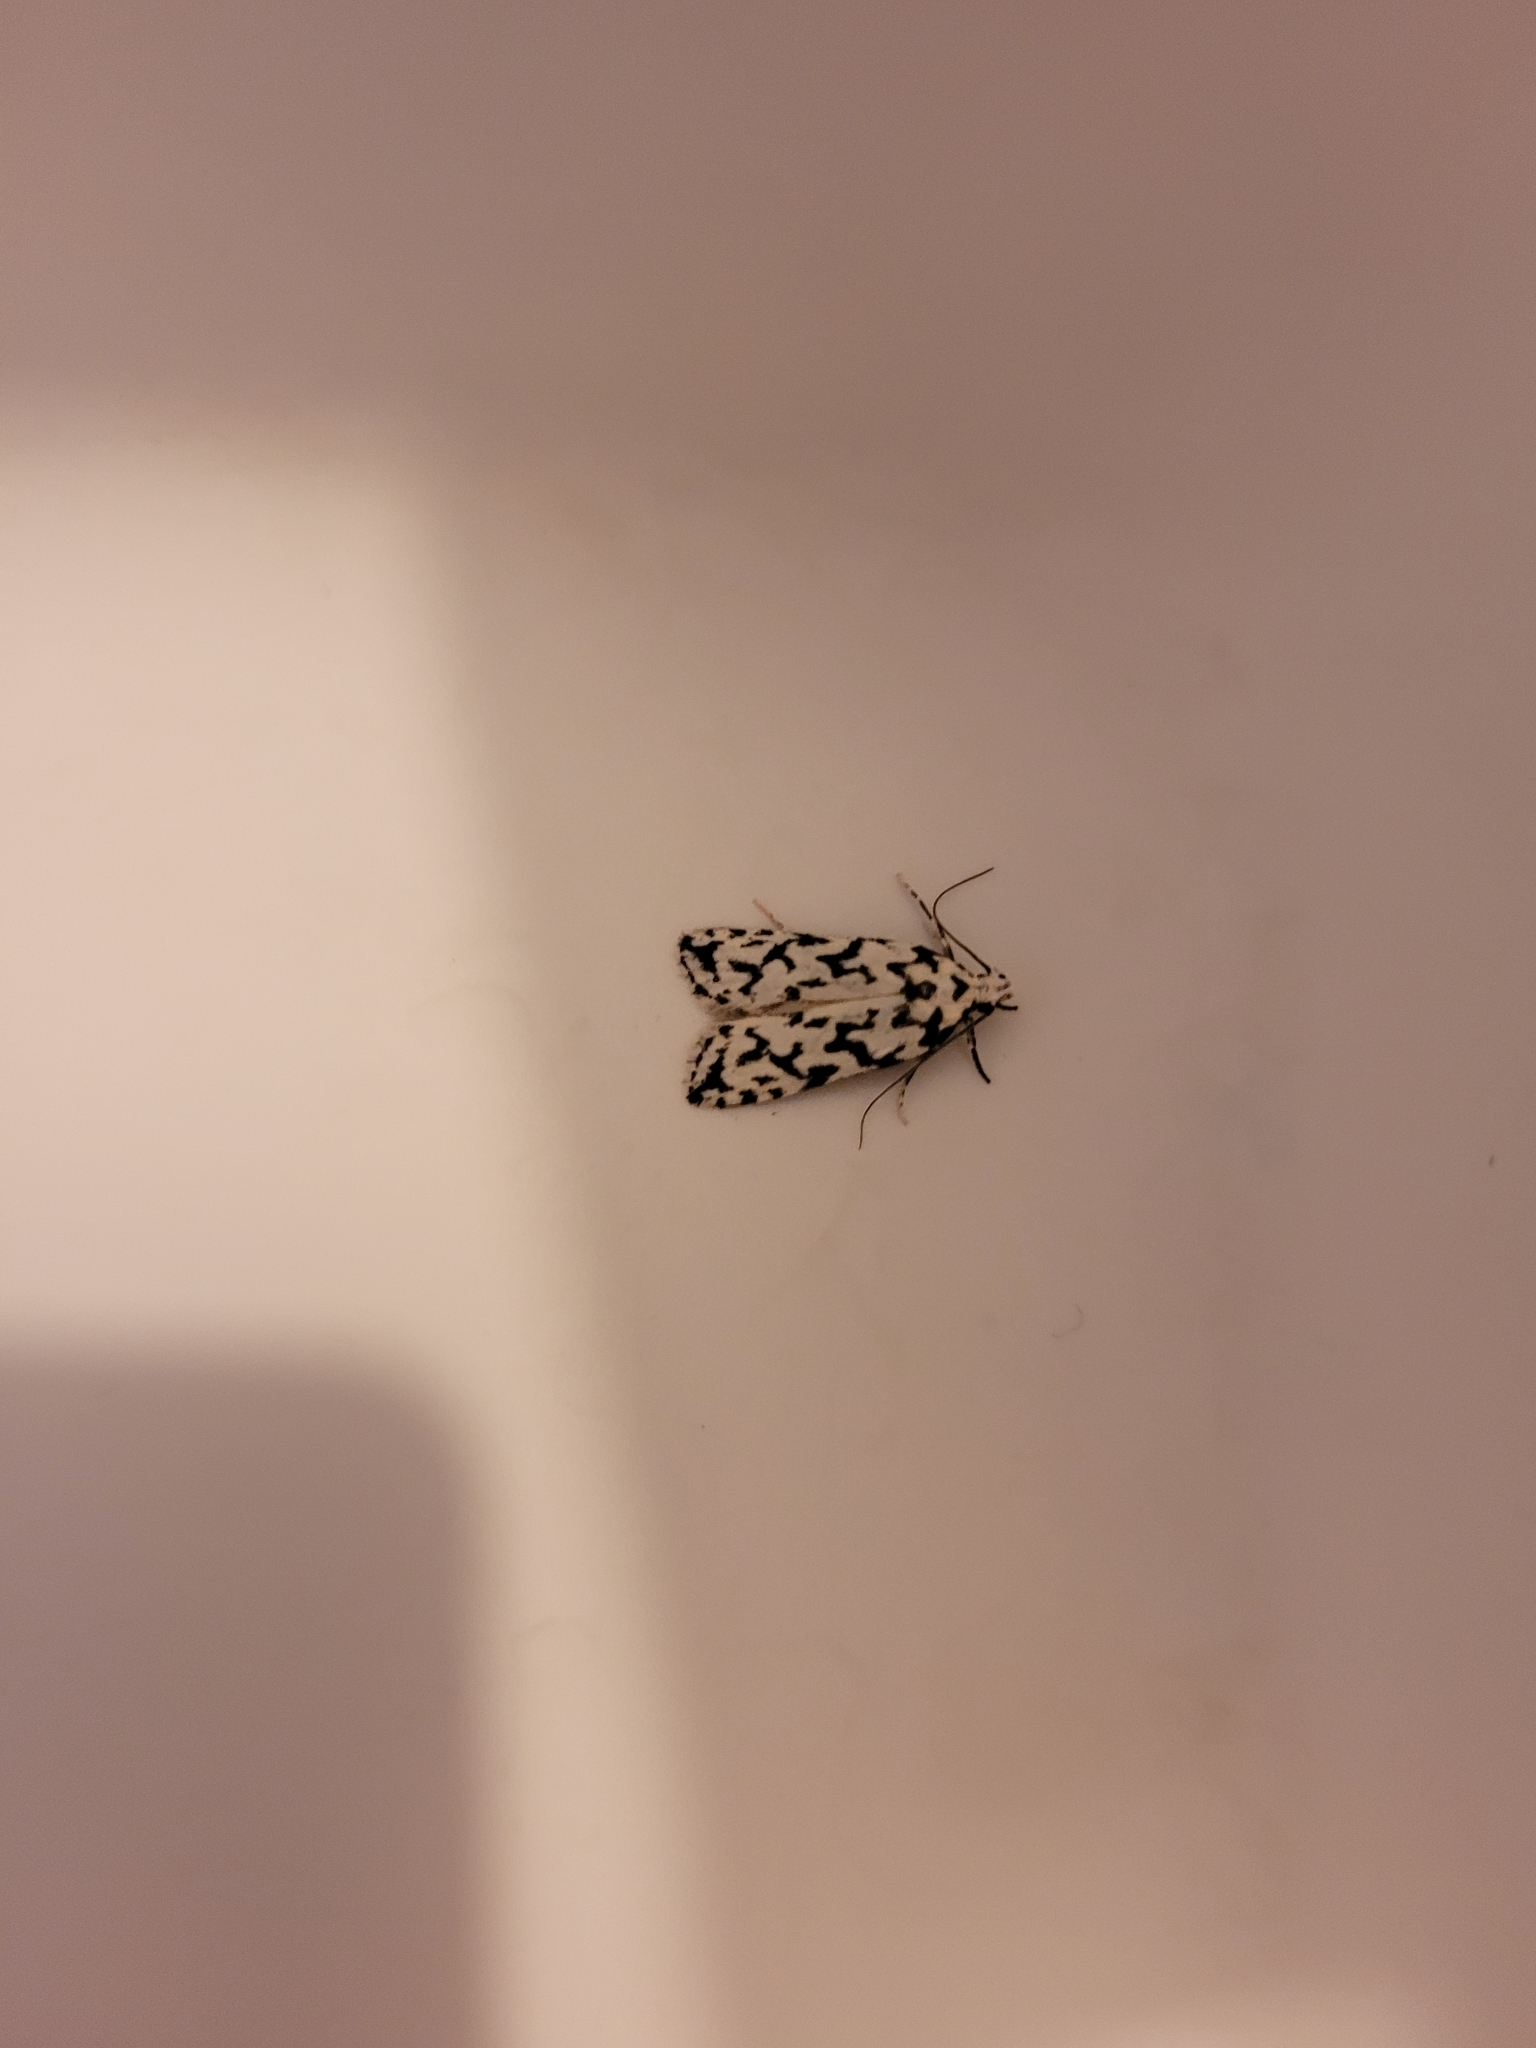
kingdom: Animalia
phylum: Arthropoda
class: Insecta
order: Lepidoptera
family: Oecophoridae
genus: Izatha
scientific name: Izatha katadiktya
